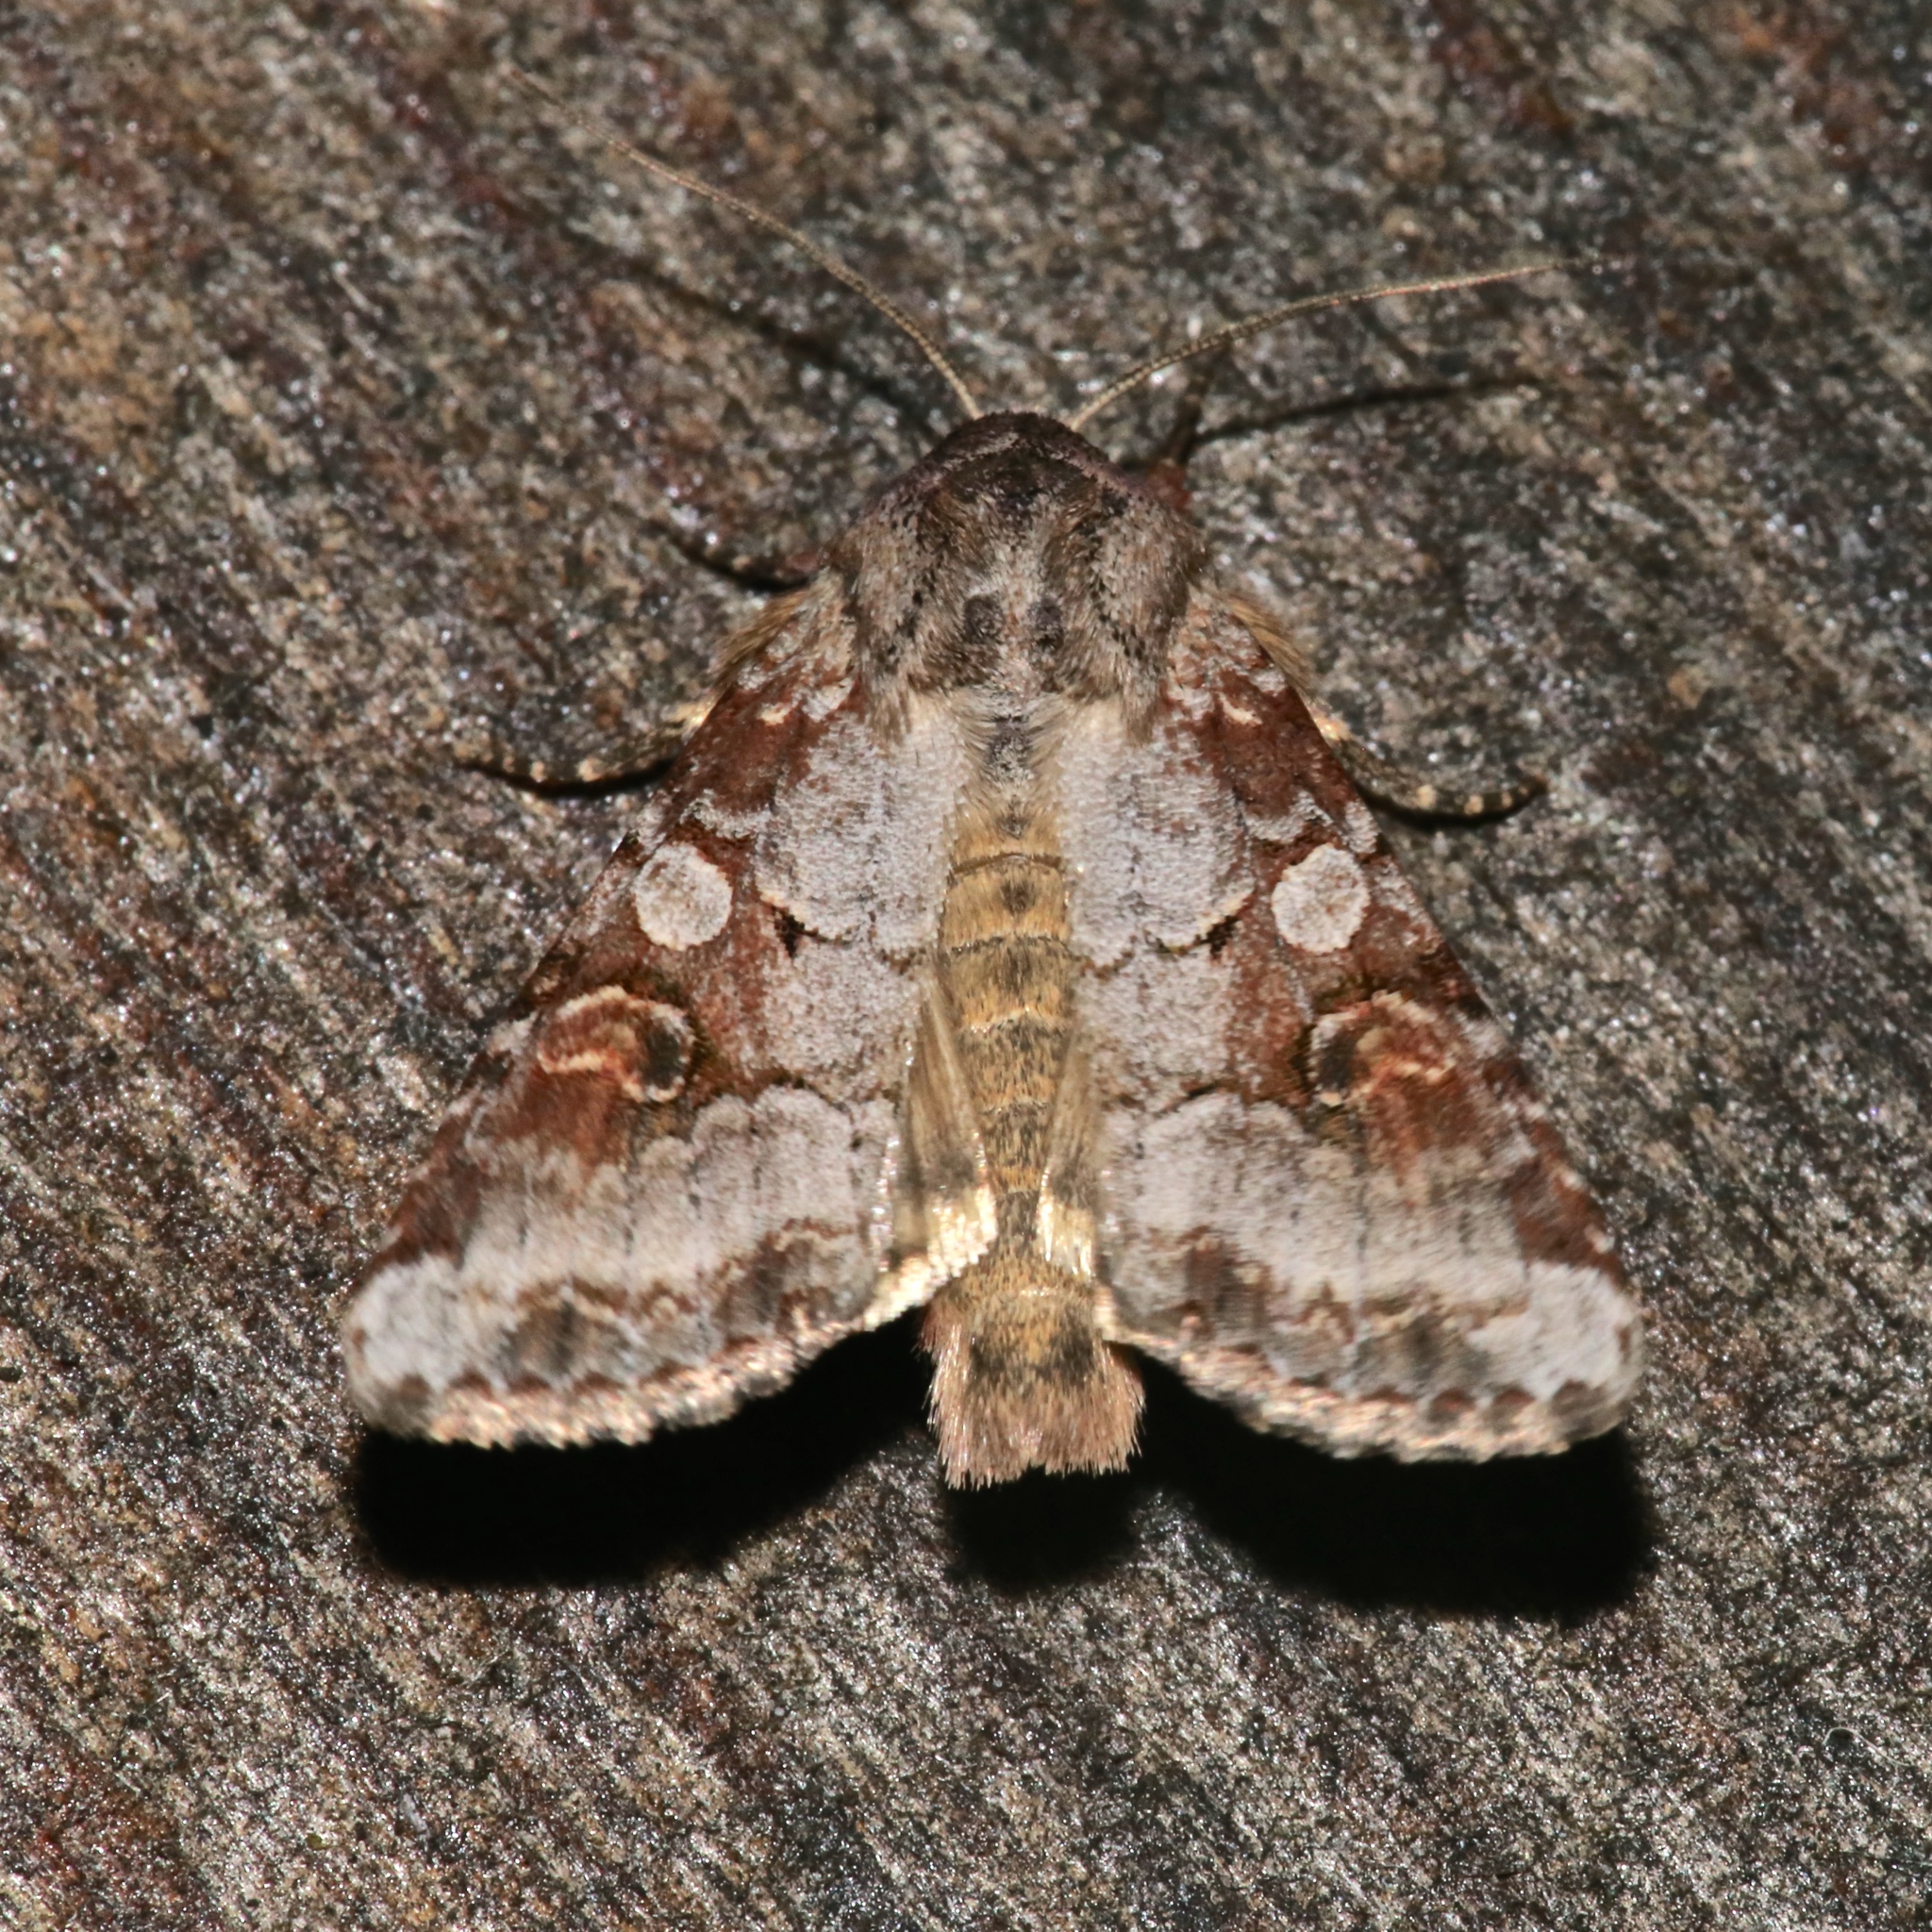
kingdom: Animalia
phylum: Arthropoda
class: Insecta
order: Lepidoptera
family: Noctuidae
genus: Trichordestra
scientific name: Trichordestra legitima
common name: Striped garden caterpillar
